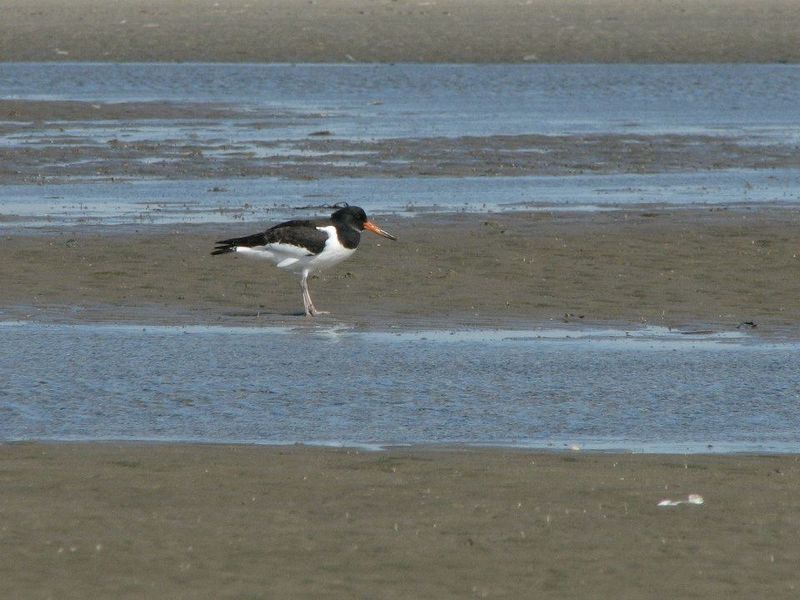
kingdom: Animalia
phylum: Chordata
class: Aves
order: Charadriiformes
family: Haematopodidae
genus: Haematopus
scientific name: Haematopus ostralegus
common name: Eurasian oystercatcher
